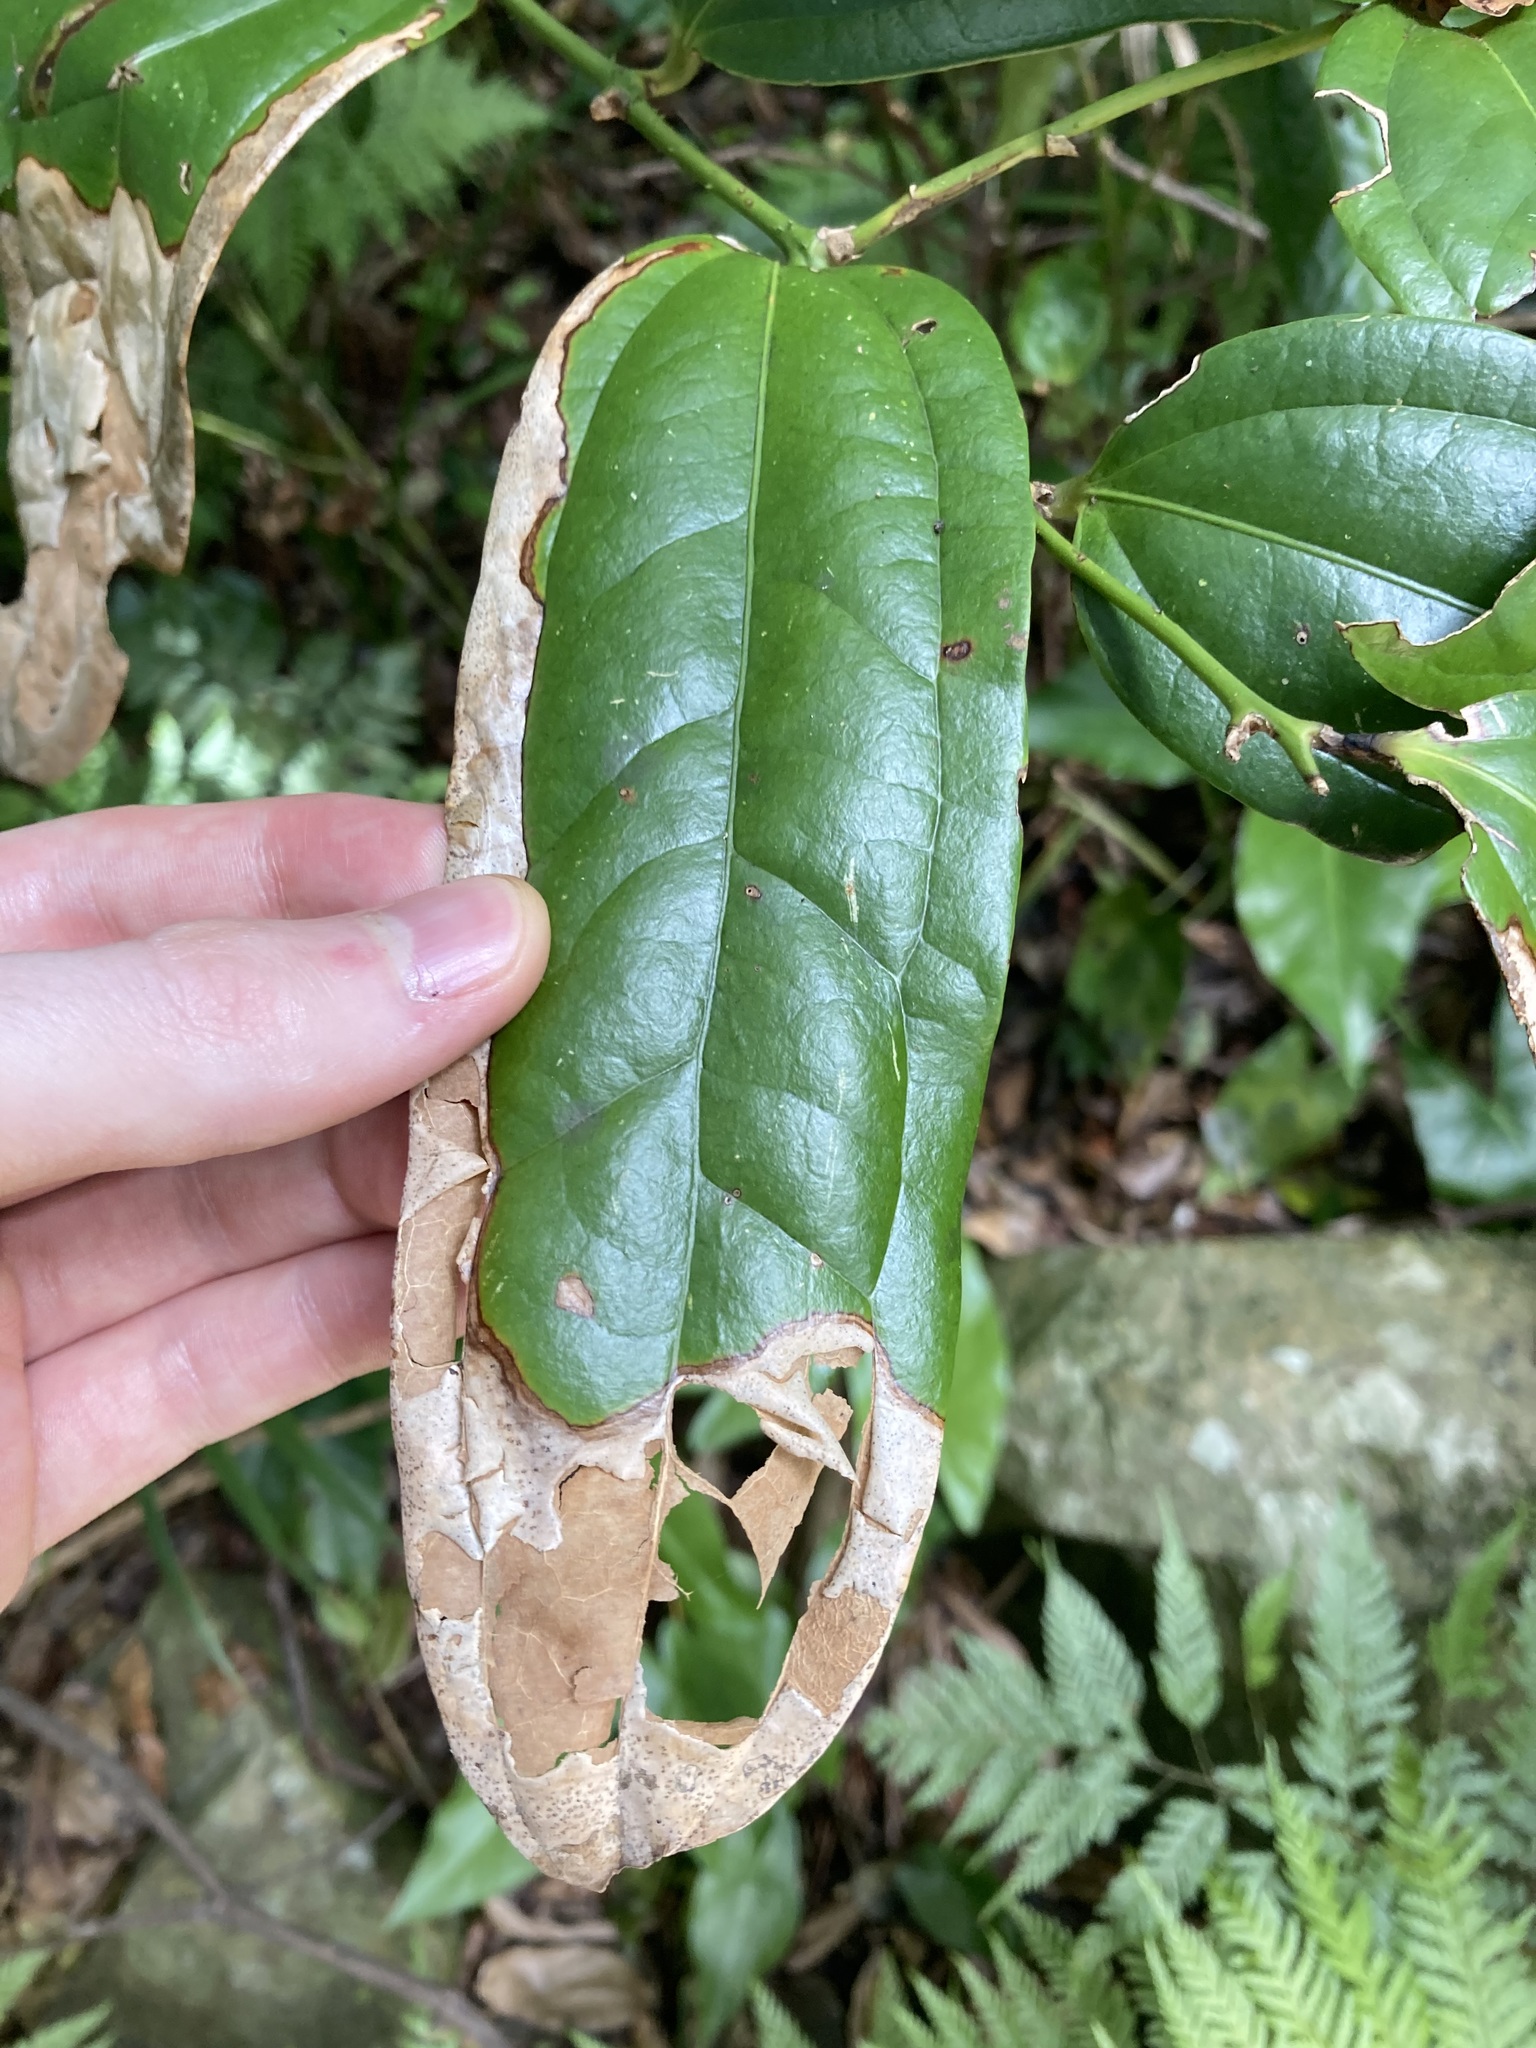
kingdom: Plantae
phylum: Tracheophyta
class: Liliopsida
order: Liliales
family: Ripogonaceae
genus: Ripogonum
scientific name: Ripogonum discolor
